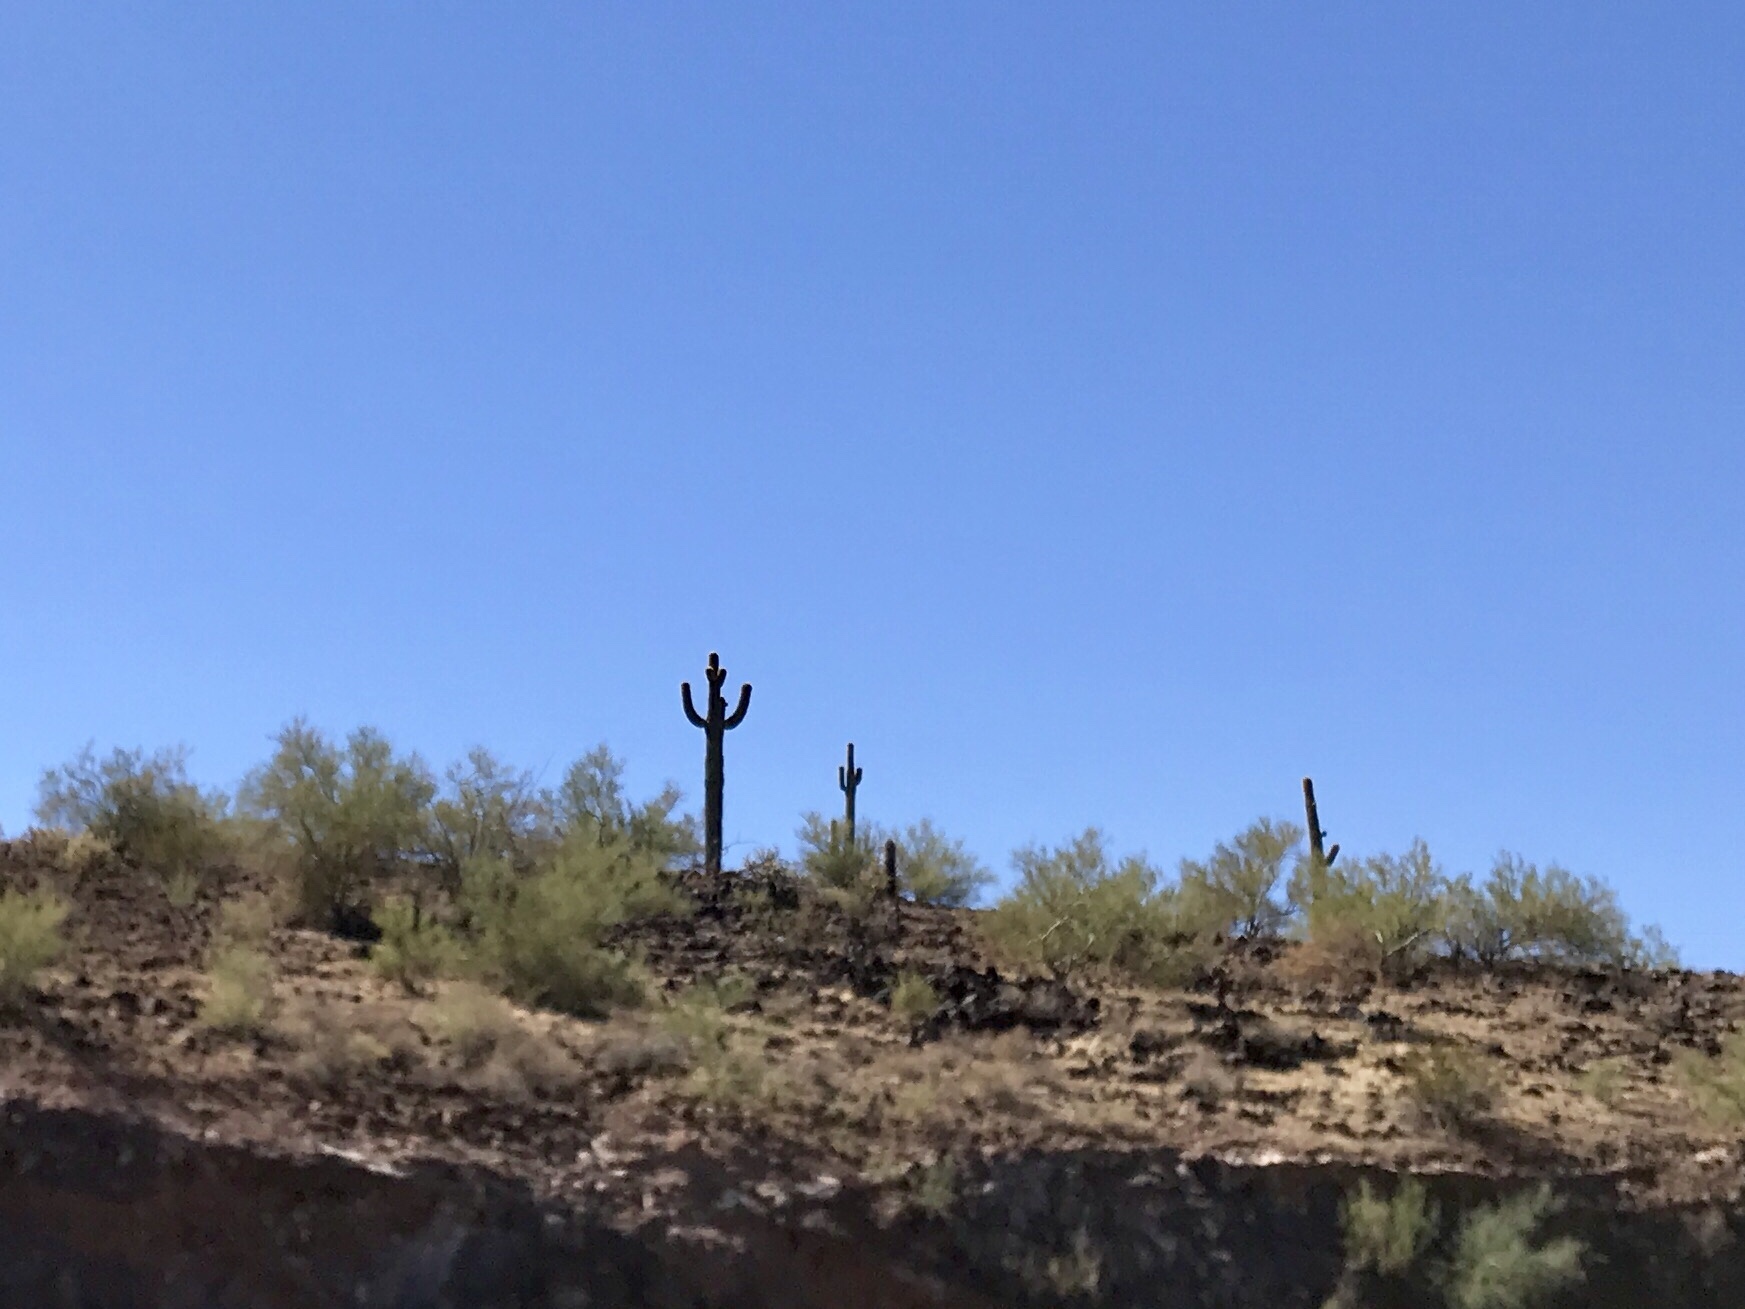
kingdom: Plantae
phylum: Tracheophyta
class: Magnoliopsida
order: Caryophyllales
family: Cactaceae
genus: Carnegiea
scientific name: Carnegiea gigantea
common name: Saguaro
